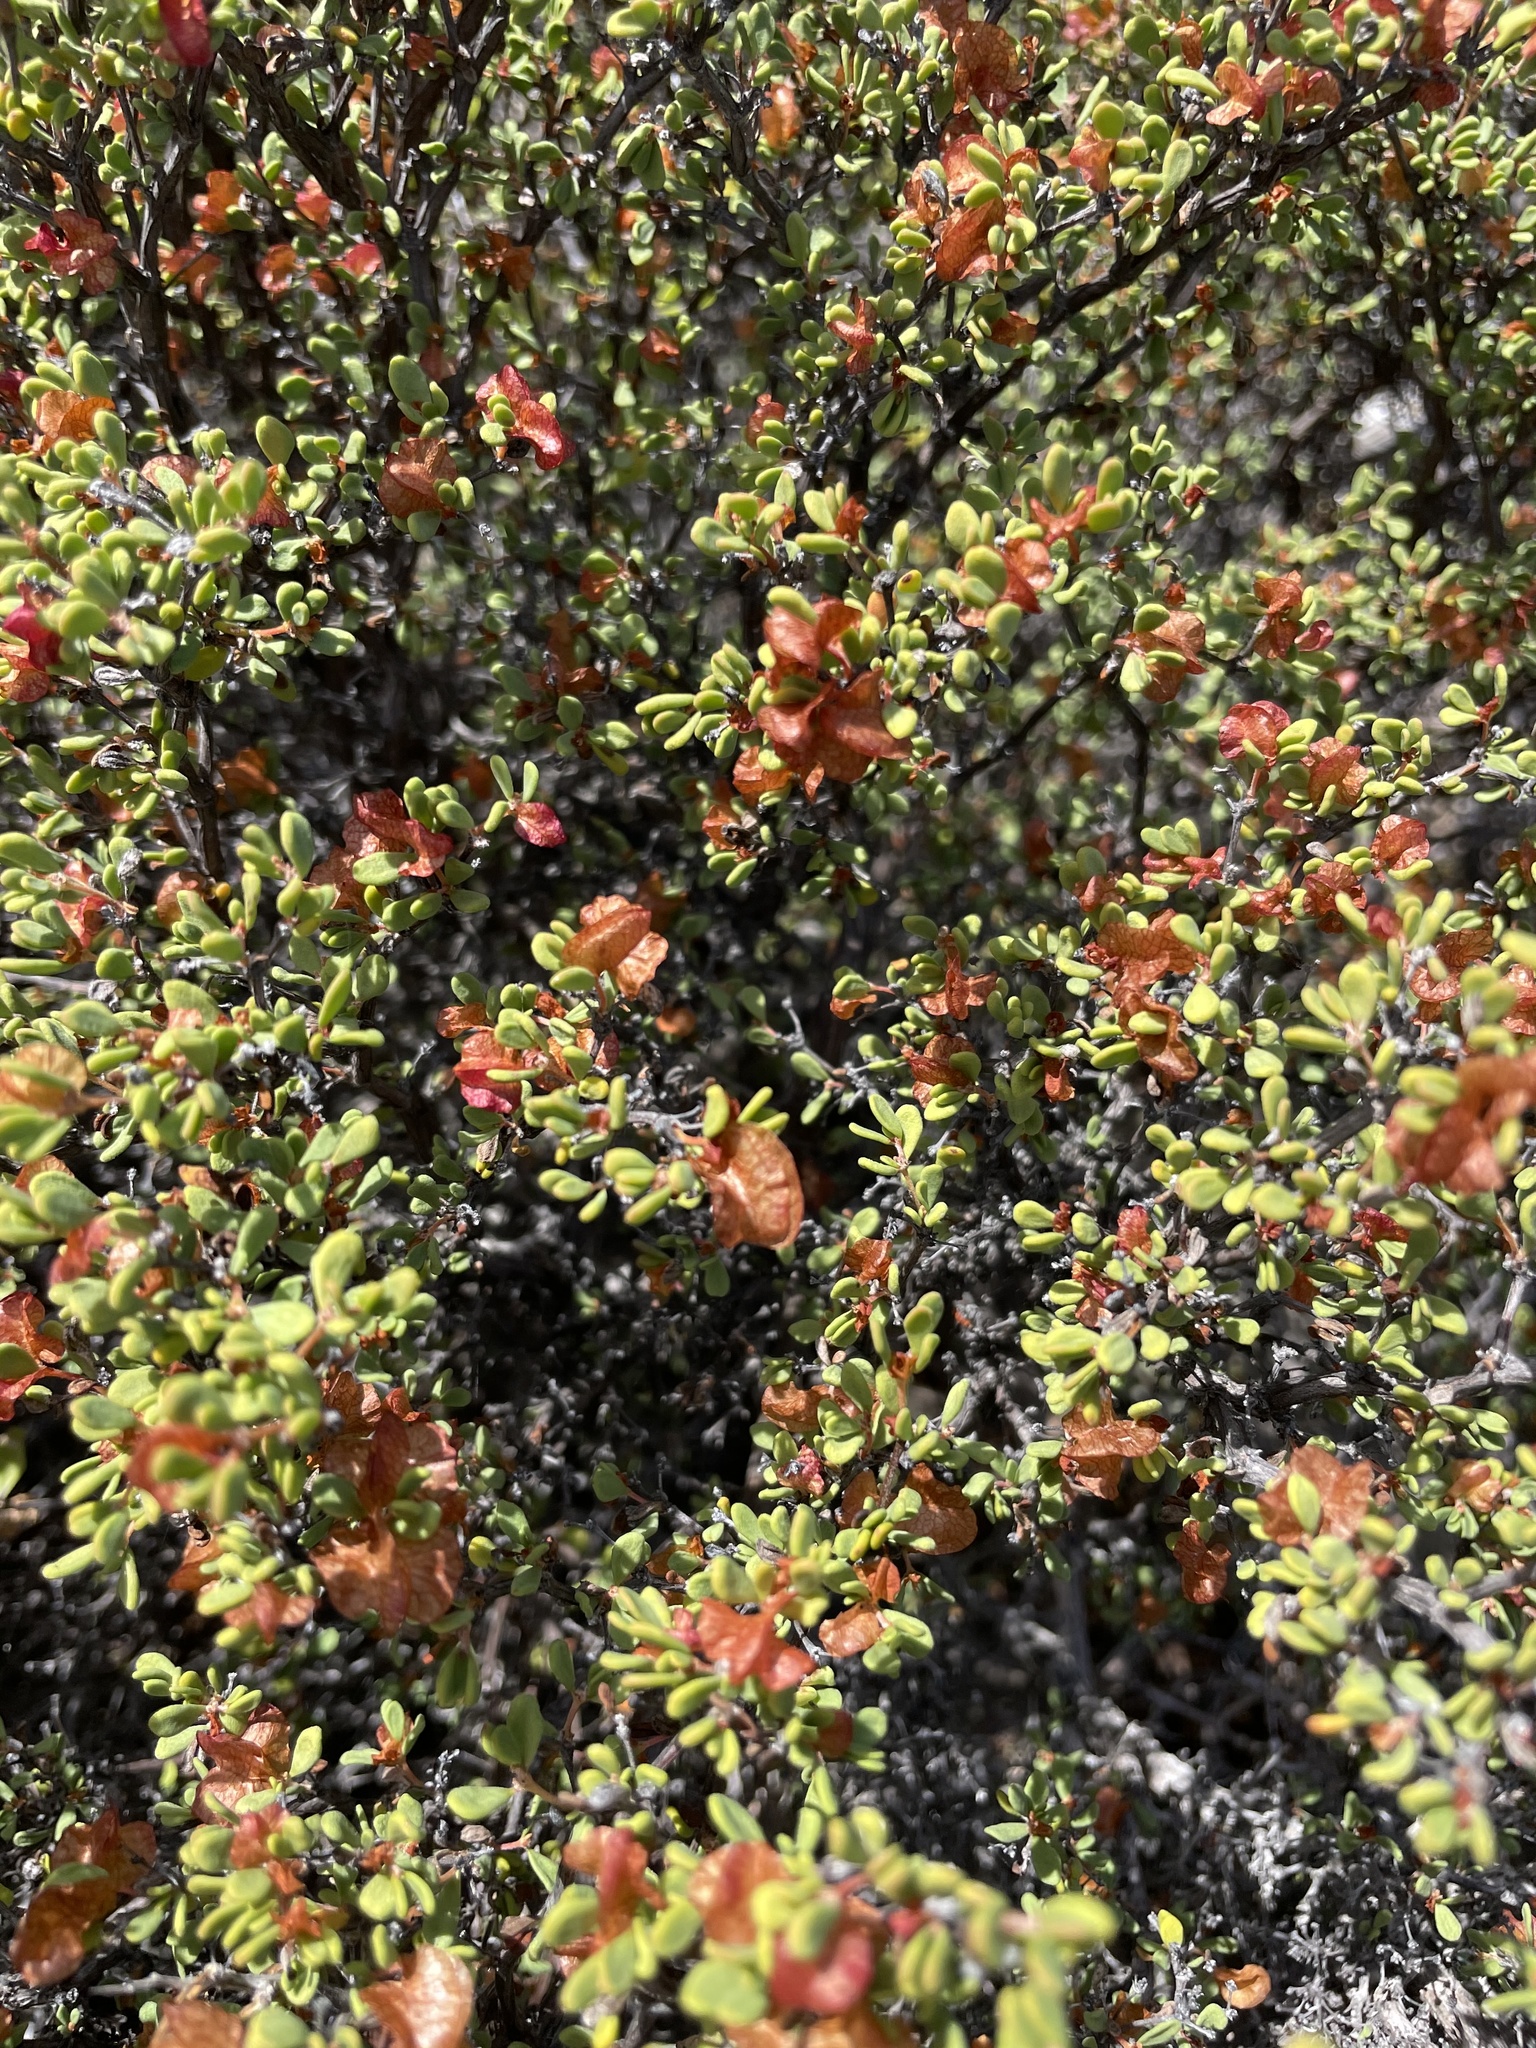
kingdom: Plantae
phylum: Tracheophyta
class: Magnoliopsida
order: Caryophyllales
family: Polygonaceae
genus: Harfordia
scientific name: Harfordia macroptera
